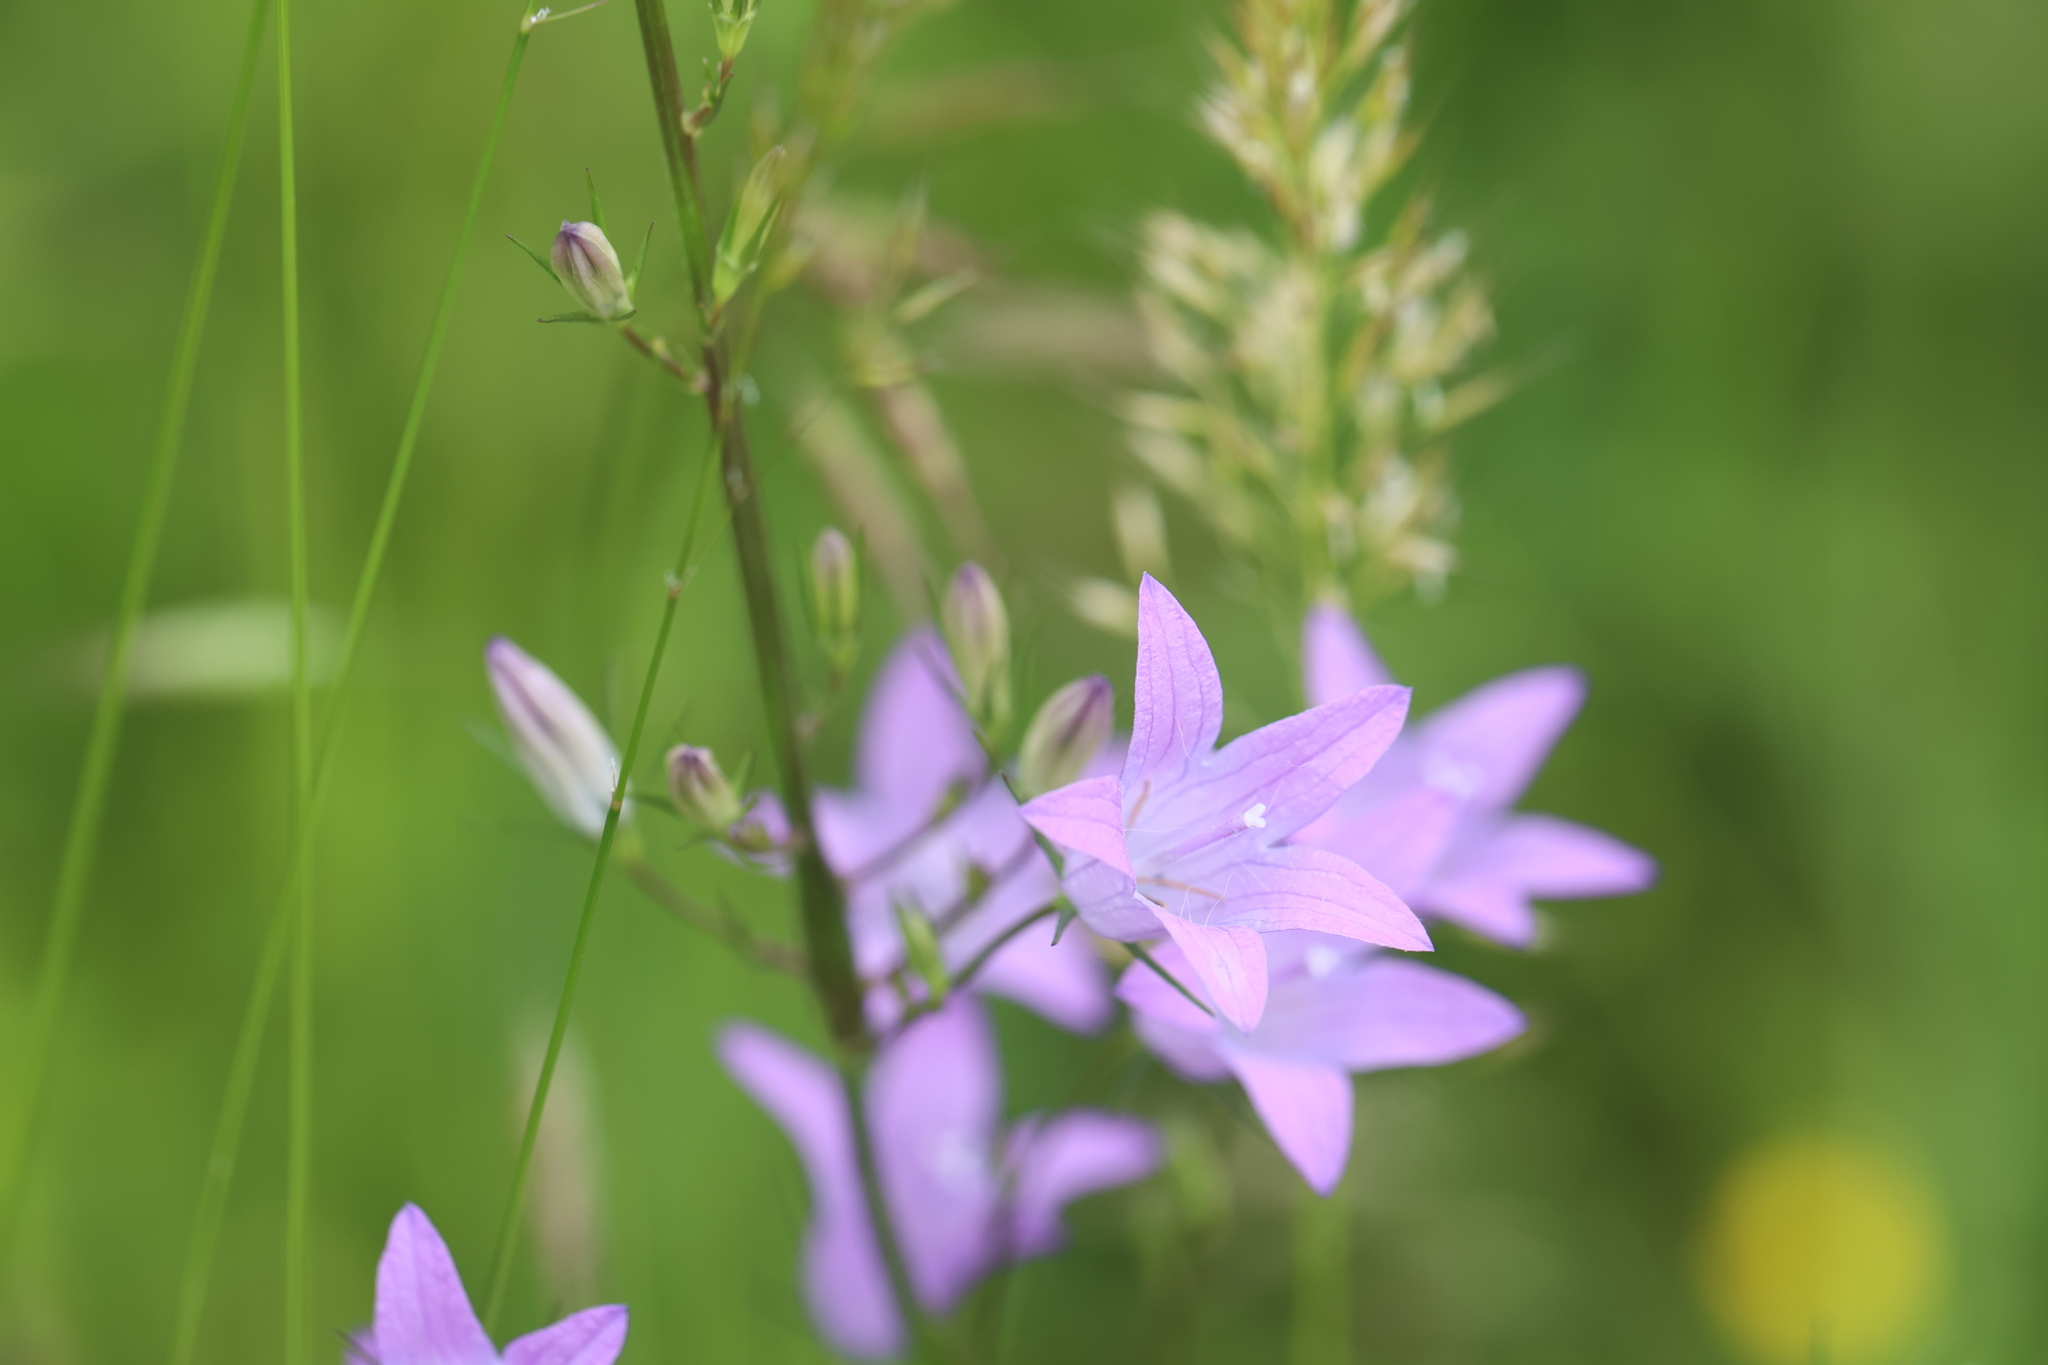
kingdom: Plantae
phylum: Tracheophyta
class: Magnoliopsida
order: Asterales
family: Campanulaceae
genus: Campanula
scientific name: Campanula rapunculus
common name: Rampion bellflower
